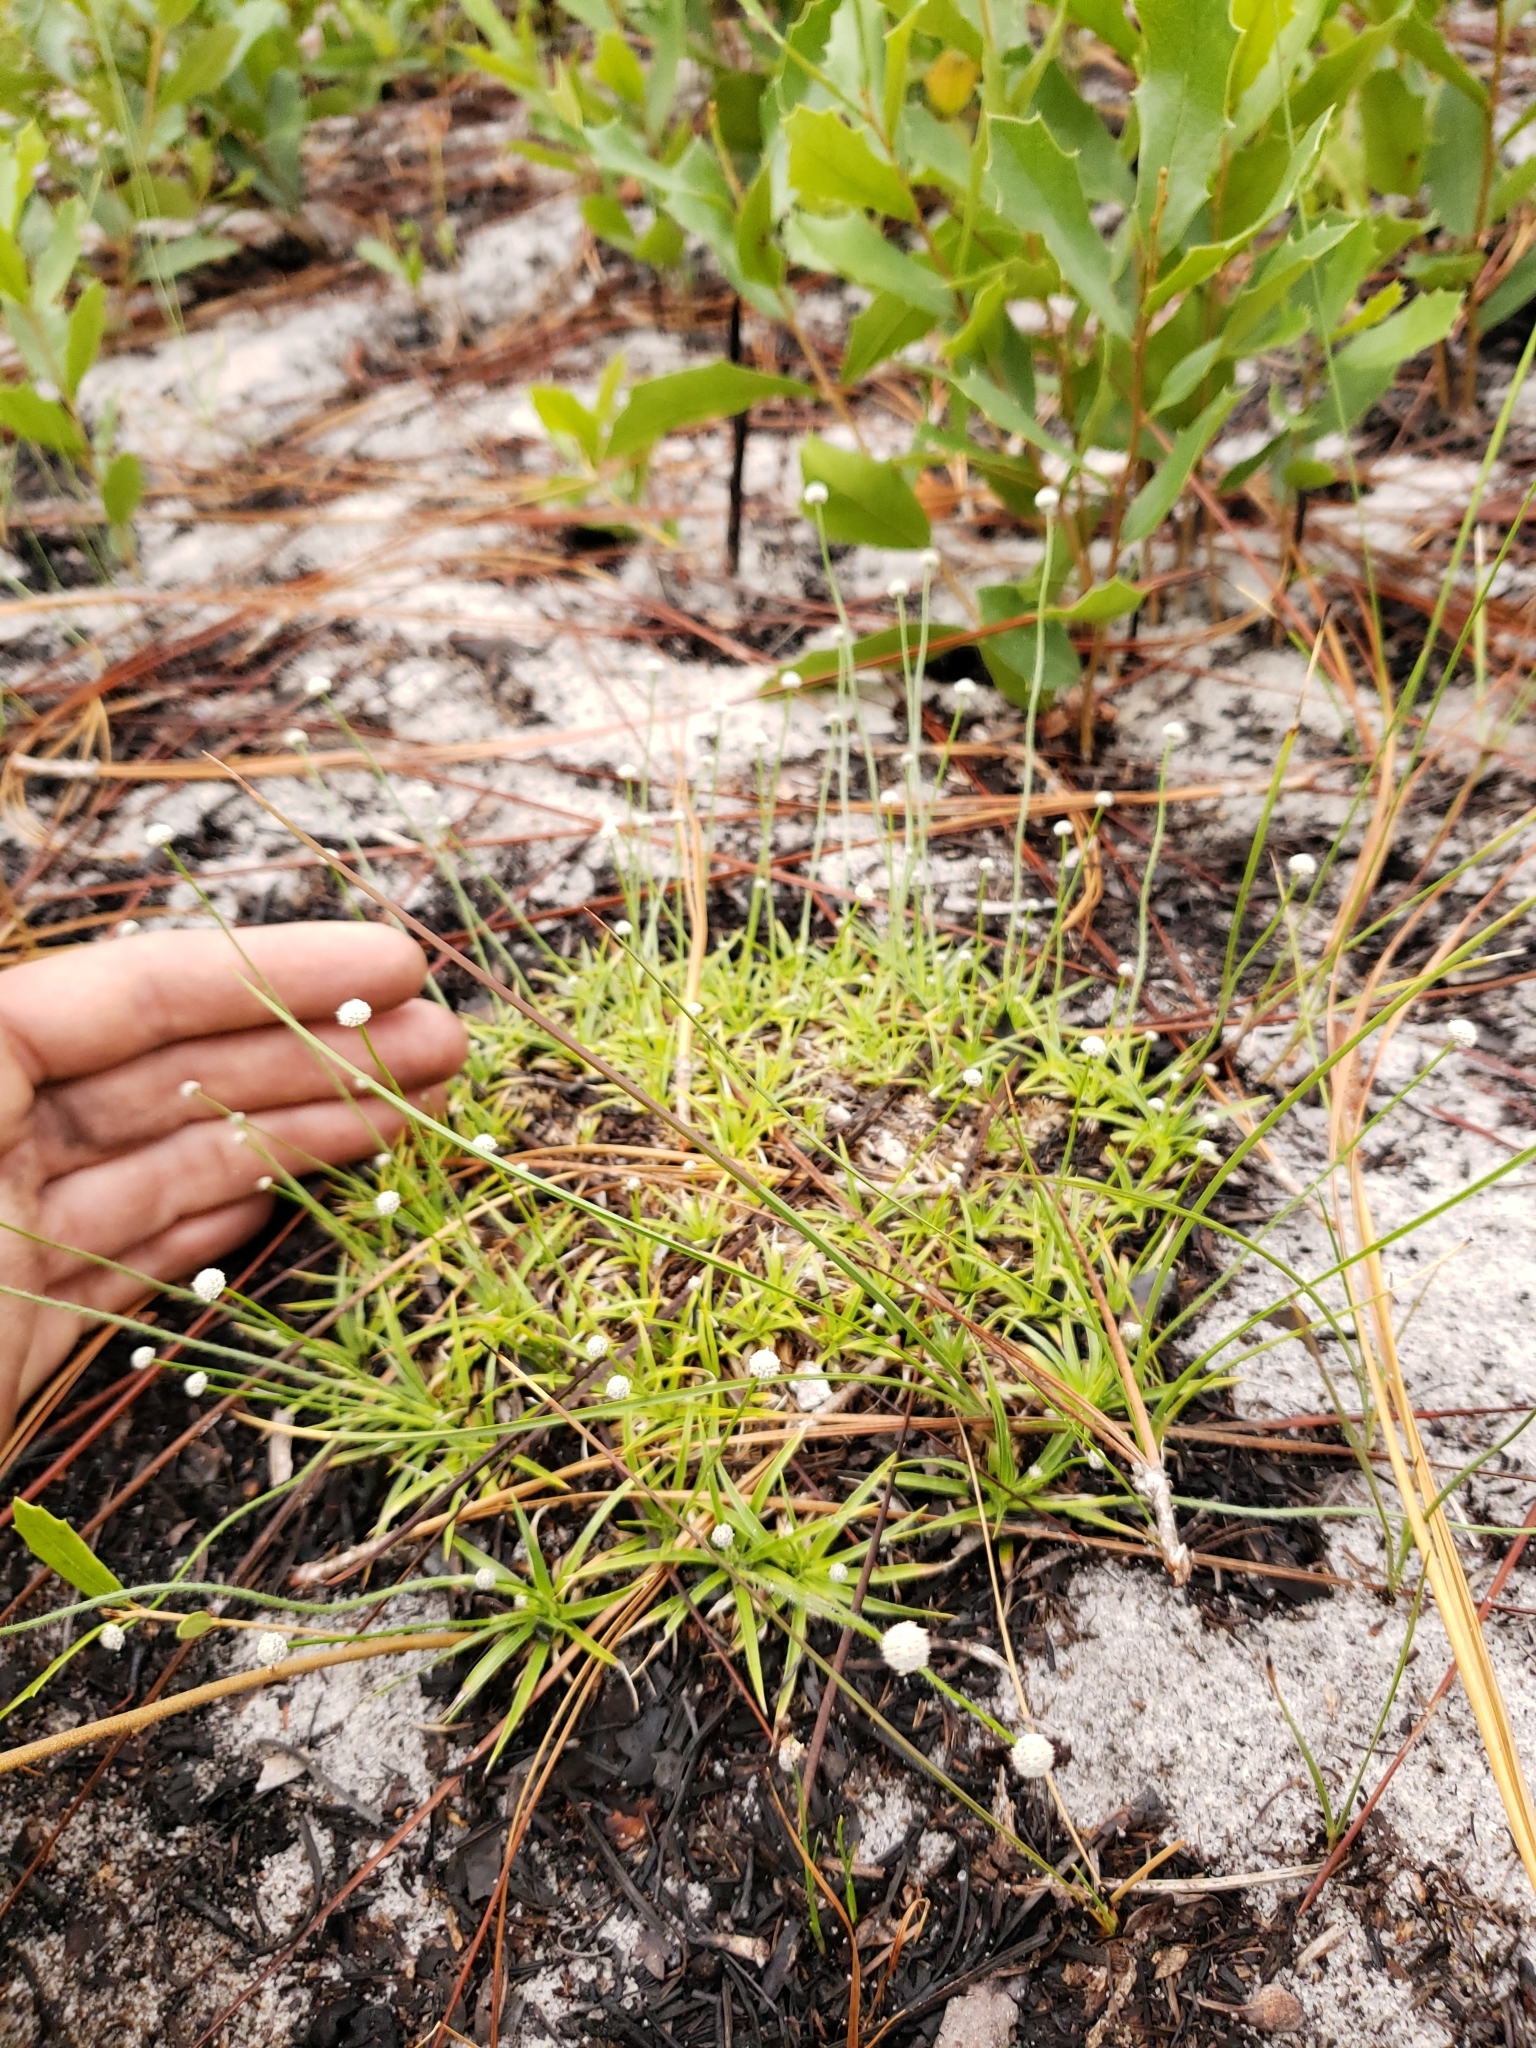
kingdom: Plantae
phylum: Tracheophyta
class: Liliopsida
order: Poales
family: Eriocaulaceae
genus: Paepalanthus
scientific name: Paepalanthus beyrichianus
